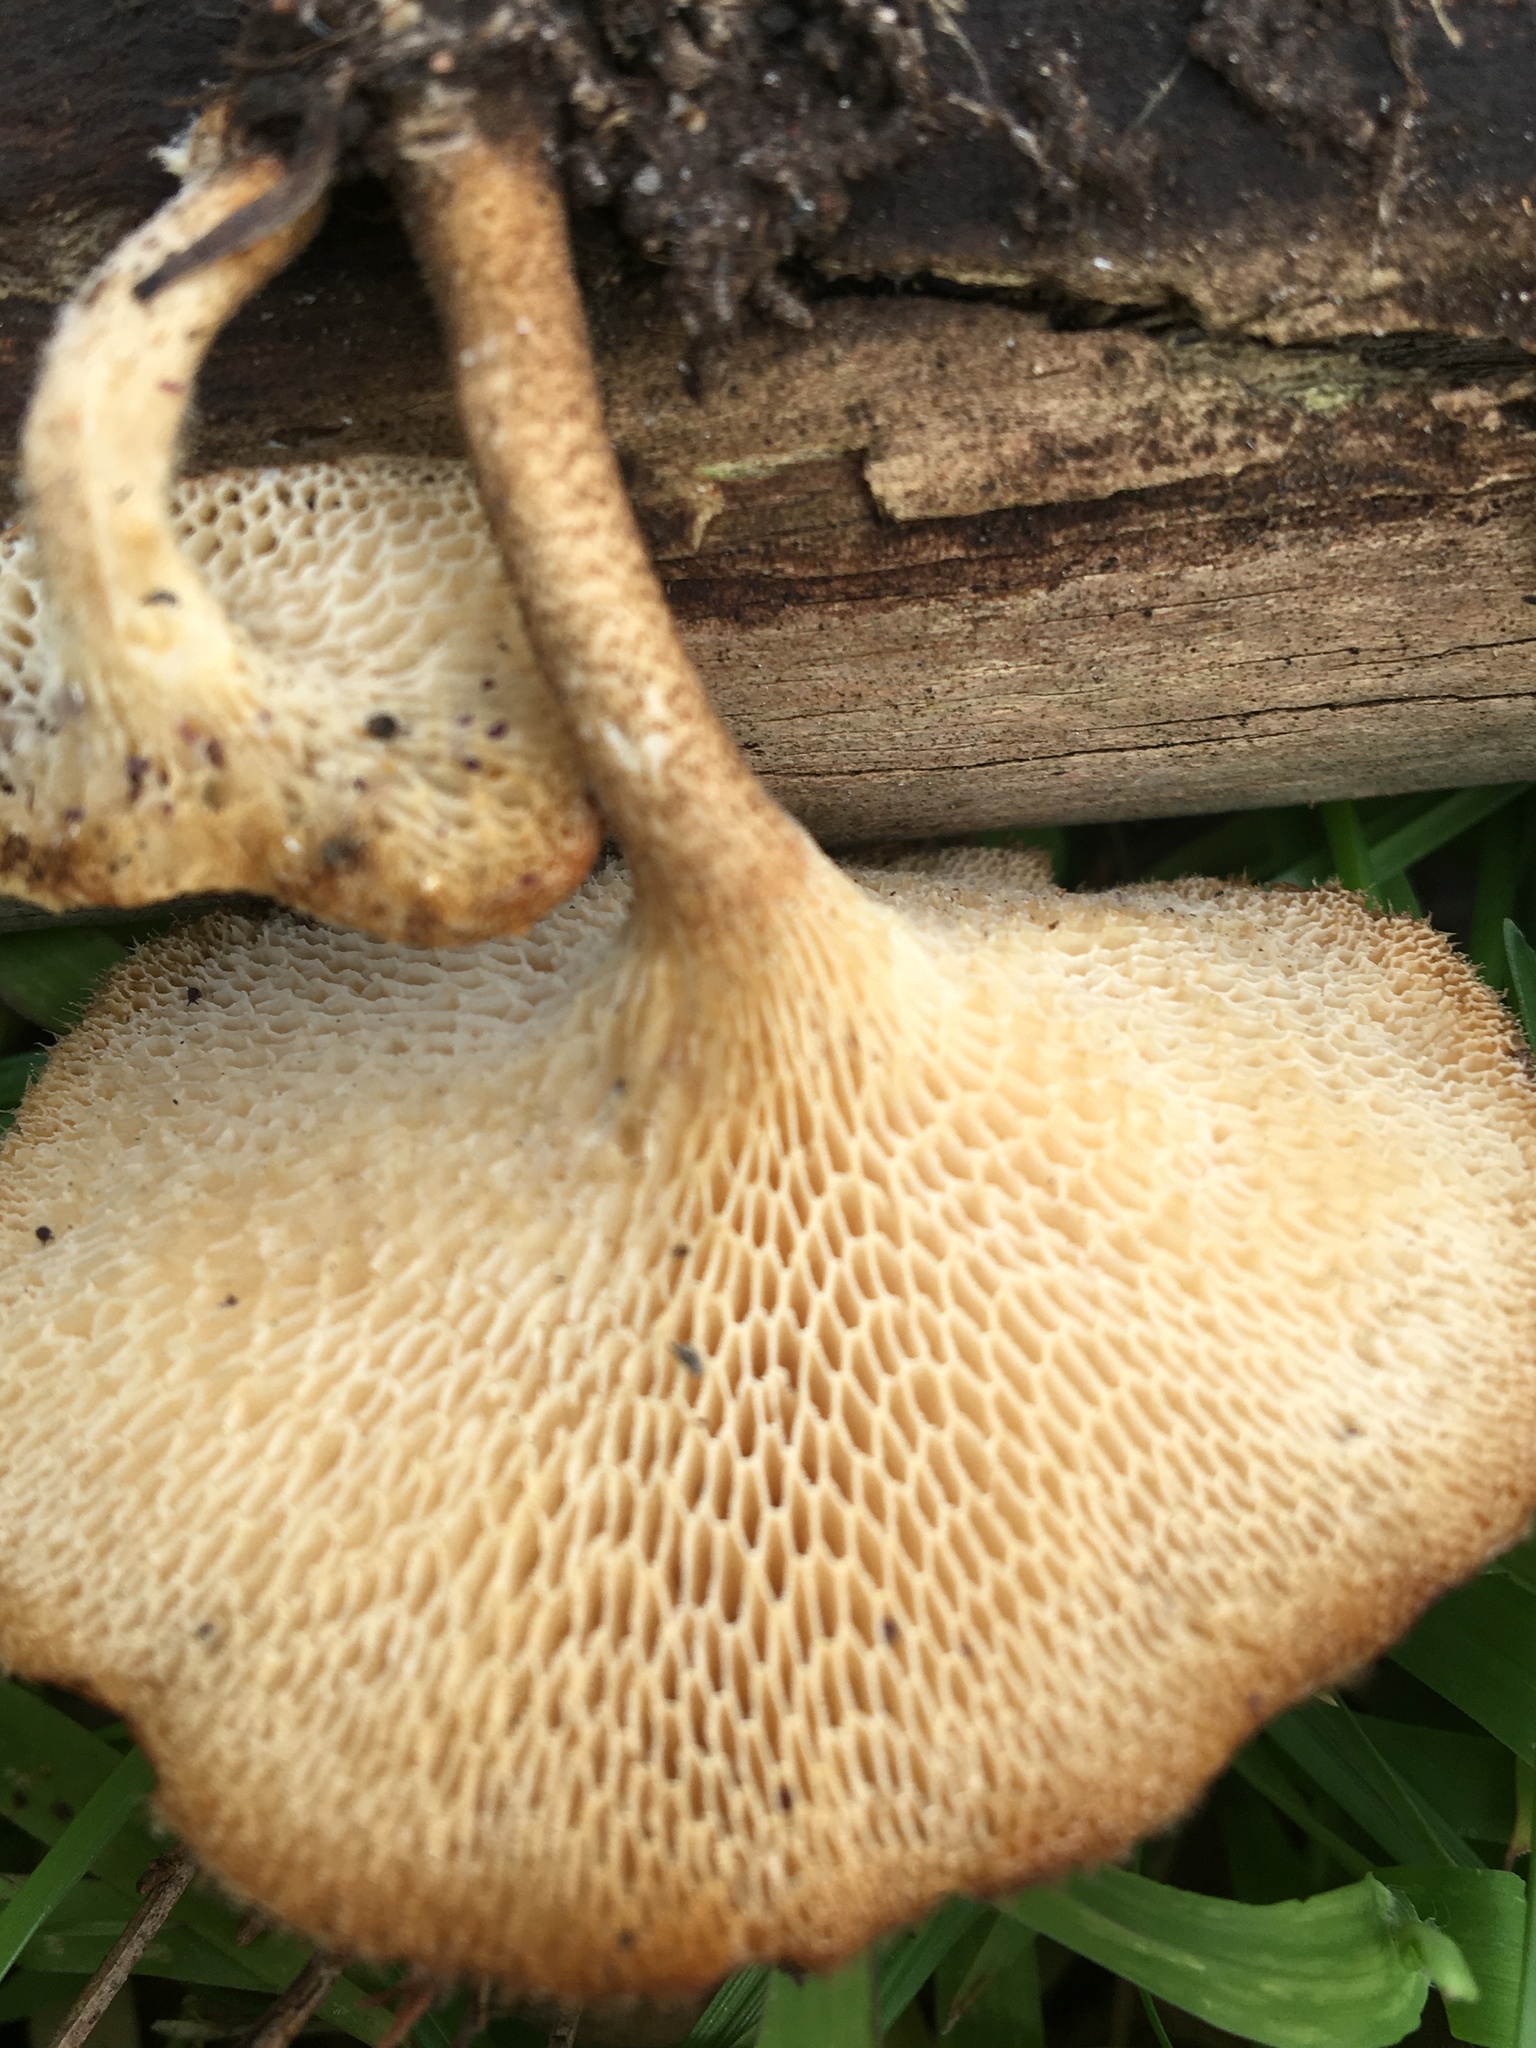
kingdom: Fungi
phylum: Basidiomycota
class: Agaricomycetes
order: Polyporales
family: Polyporaceae
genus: Lentinus
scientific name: Lentinus arcularius
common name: Spring polypore
